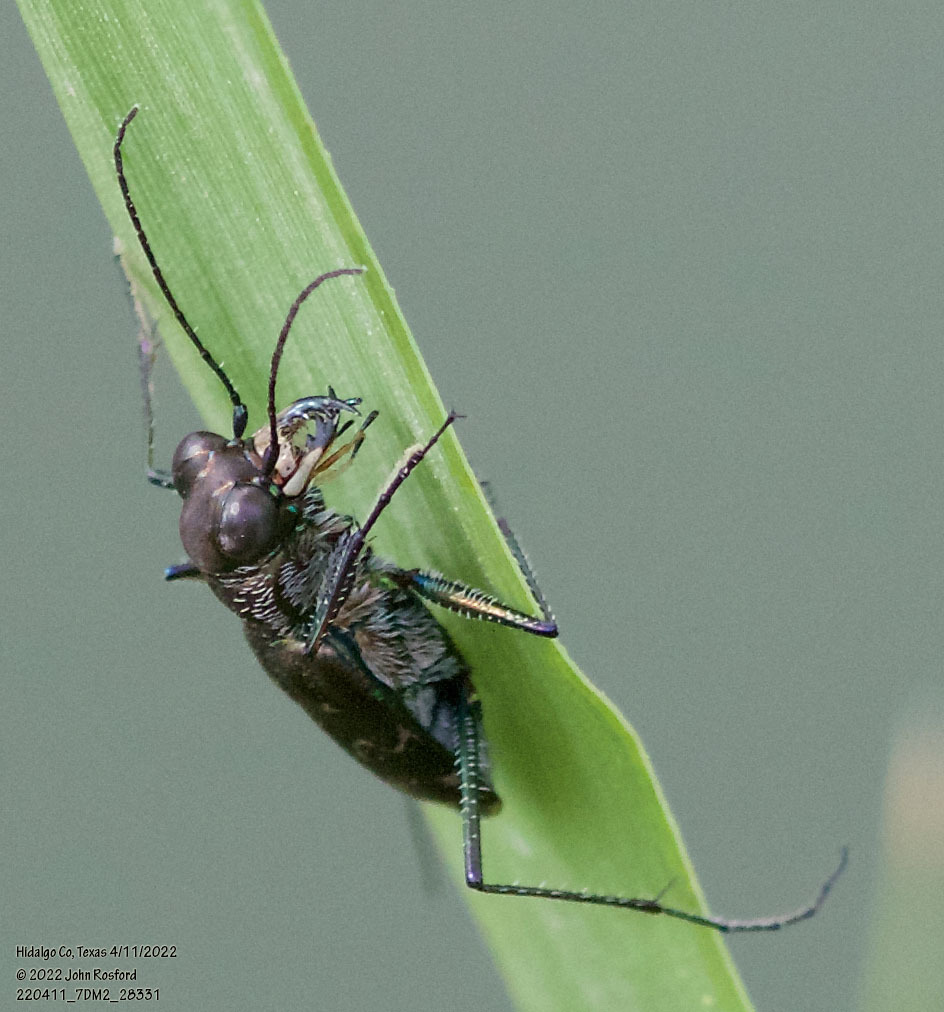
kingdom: Animalia
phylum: Arthropoda
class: Insecta
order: Coleoptera
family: Carabidae
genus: Cicindela
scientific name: Cicindela trifasciata
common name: Mudflat tiger beetle
